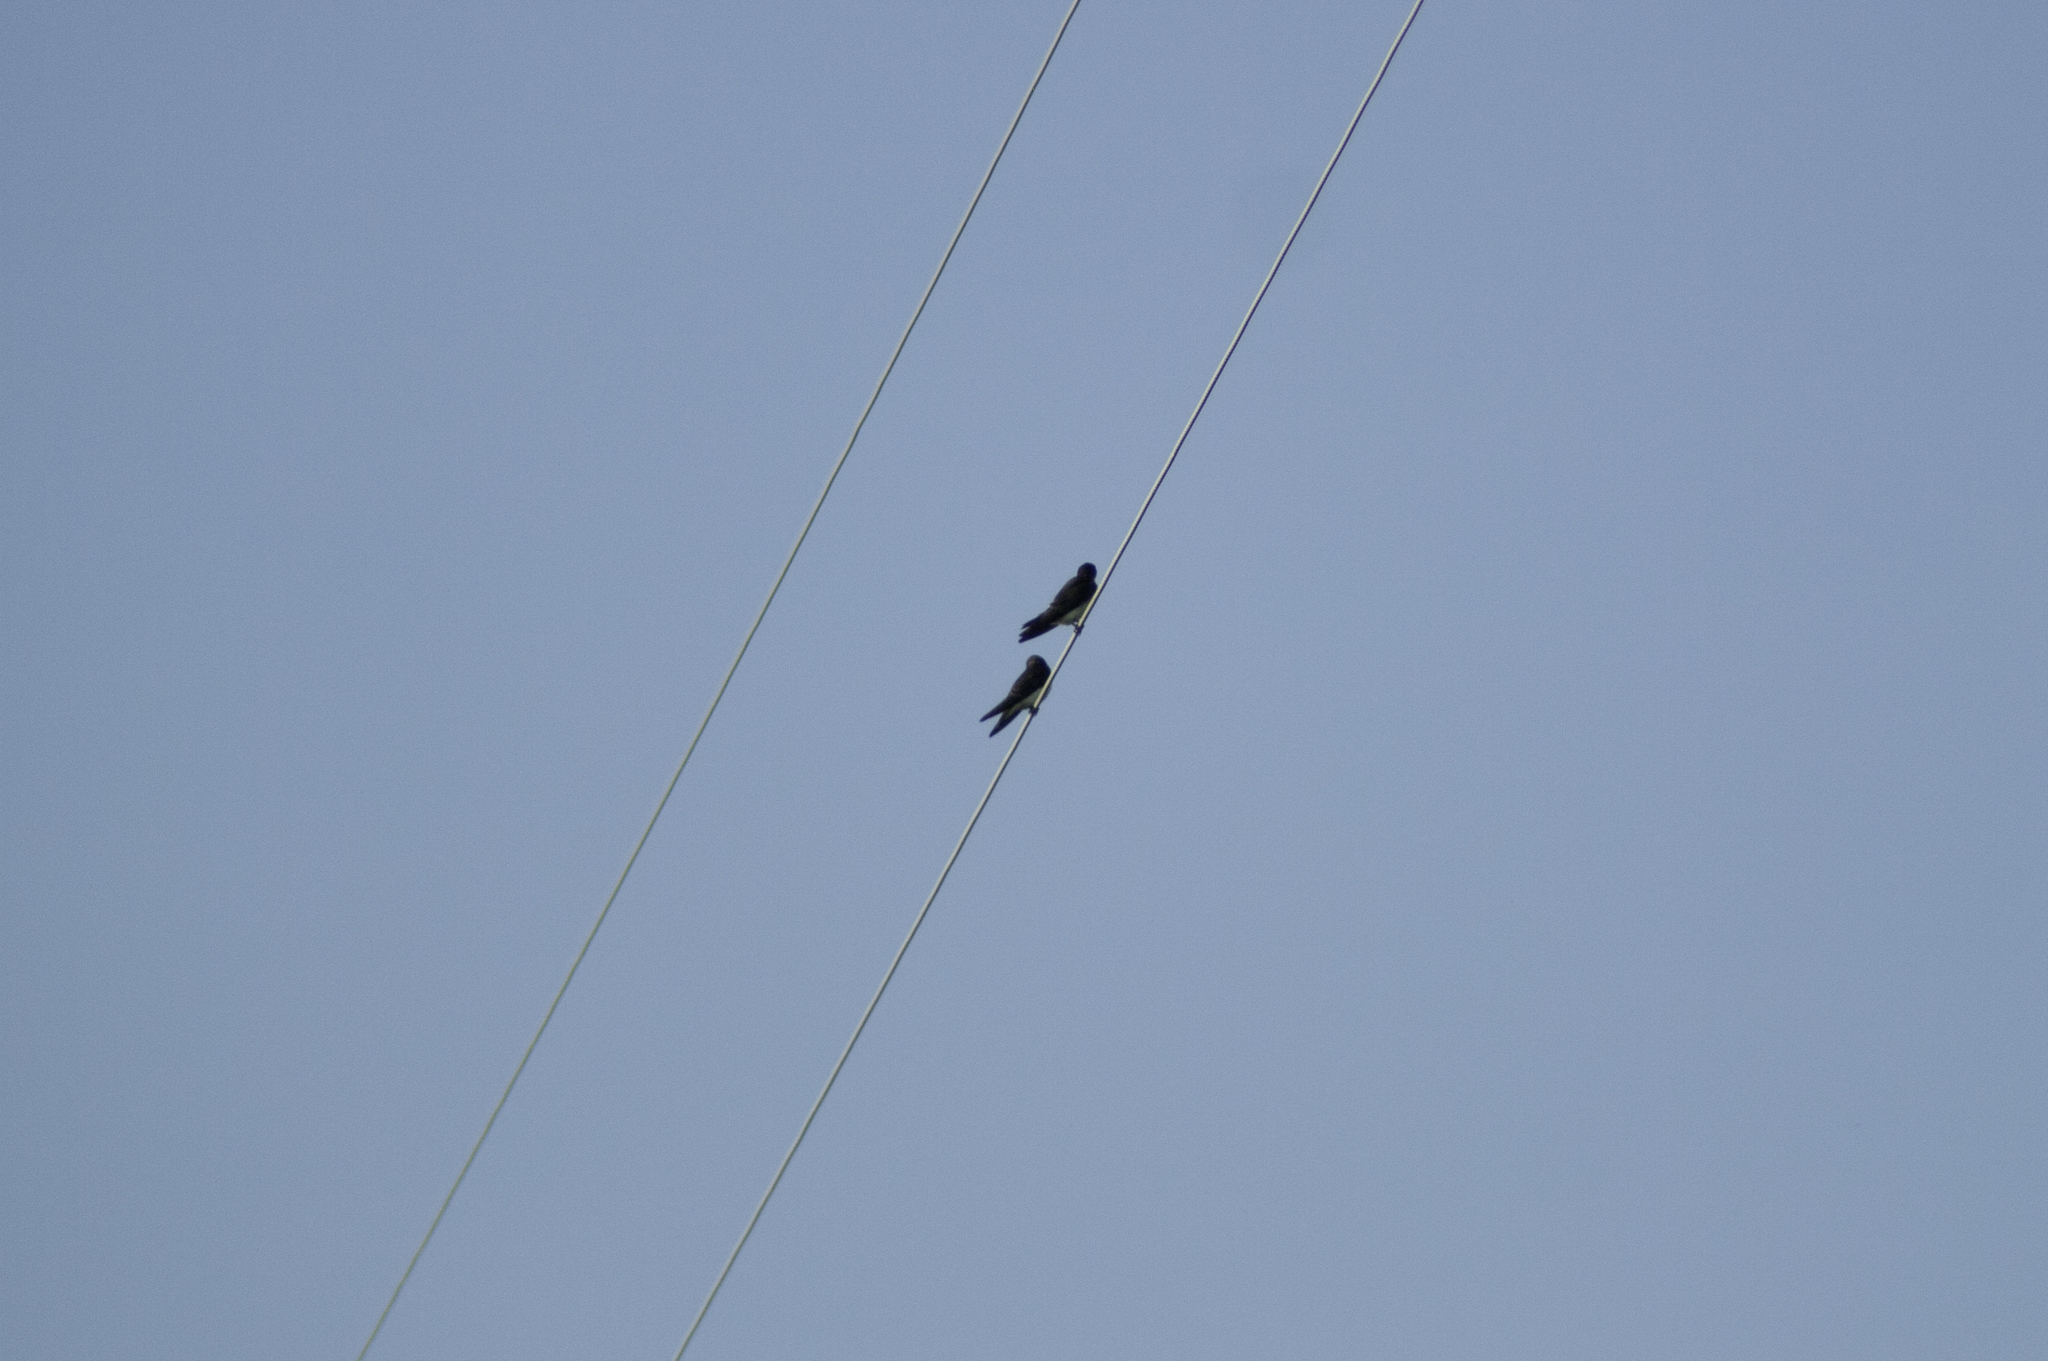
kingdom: Animalia
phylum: Chordata
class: Aves
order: Passeriformes
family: Hirundinidae
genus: Tachycineta
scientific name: Tachycineta bicolor
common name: Tree swallow
